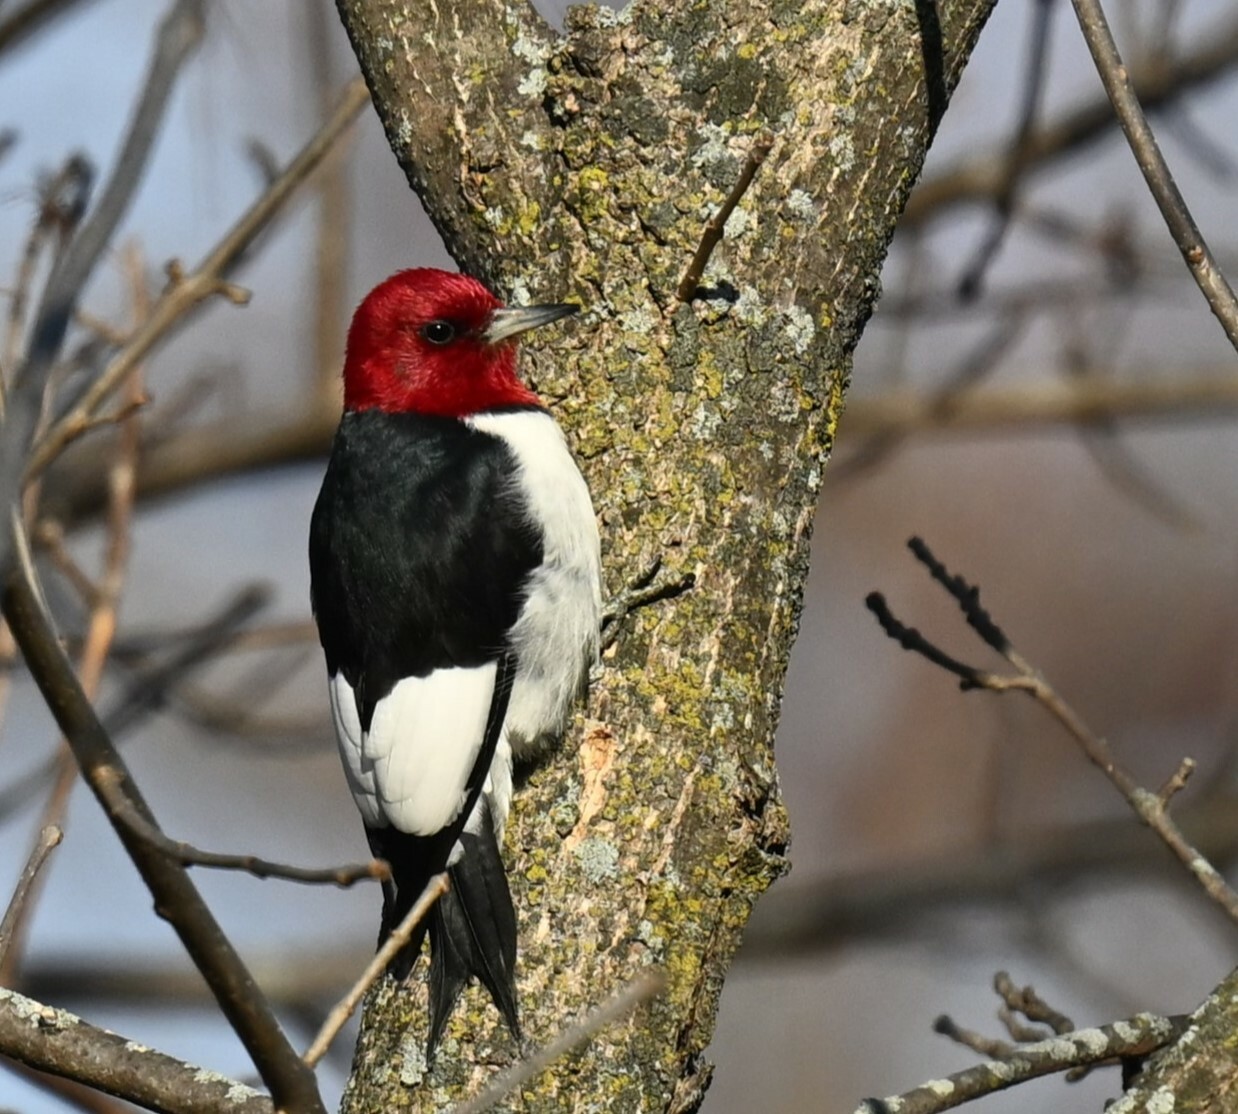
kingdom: Animalia
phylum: Chordata
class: Aves
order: Piciformes
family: Picidae
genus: Melanerpes
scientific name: Melanerpes erythrocephalus
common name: Red-headed woodpecker
